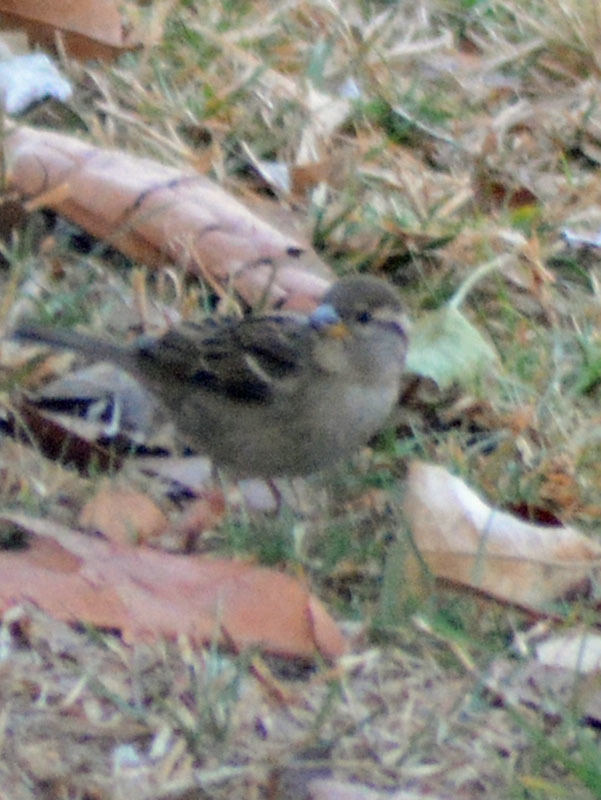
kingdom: Animalia
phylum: Chordata
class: Aves
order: Passeriformes
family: Passeridae
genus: Passer
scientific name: Passer domesticus
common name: House sparrow
